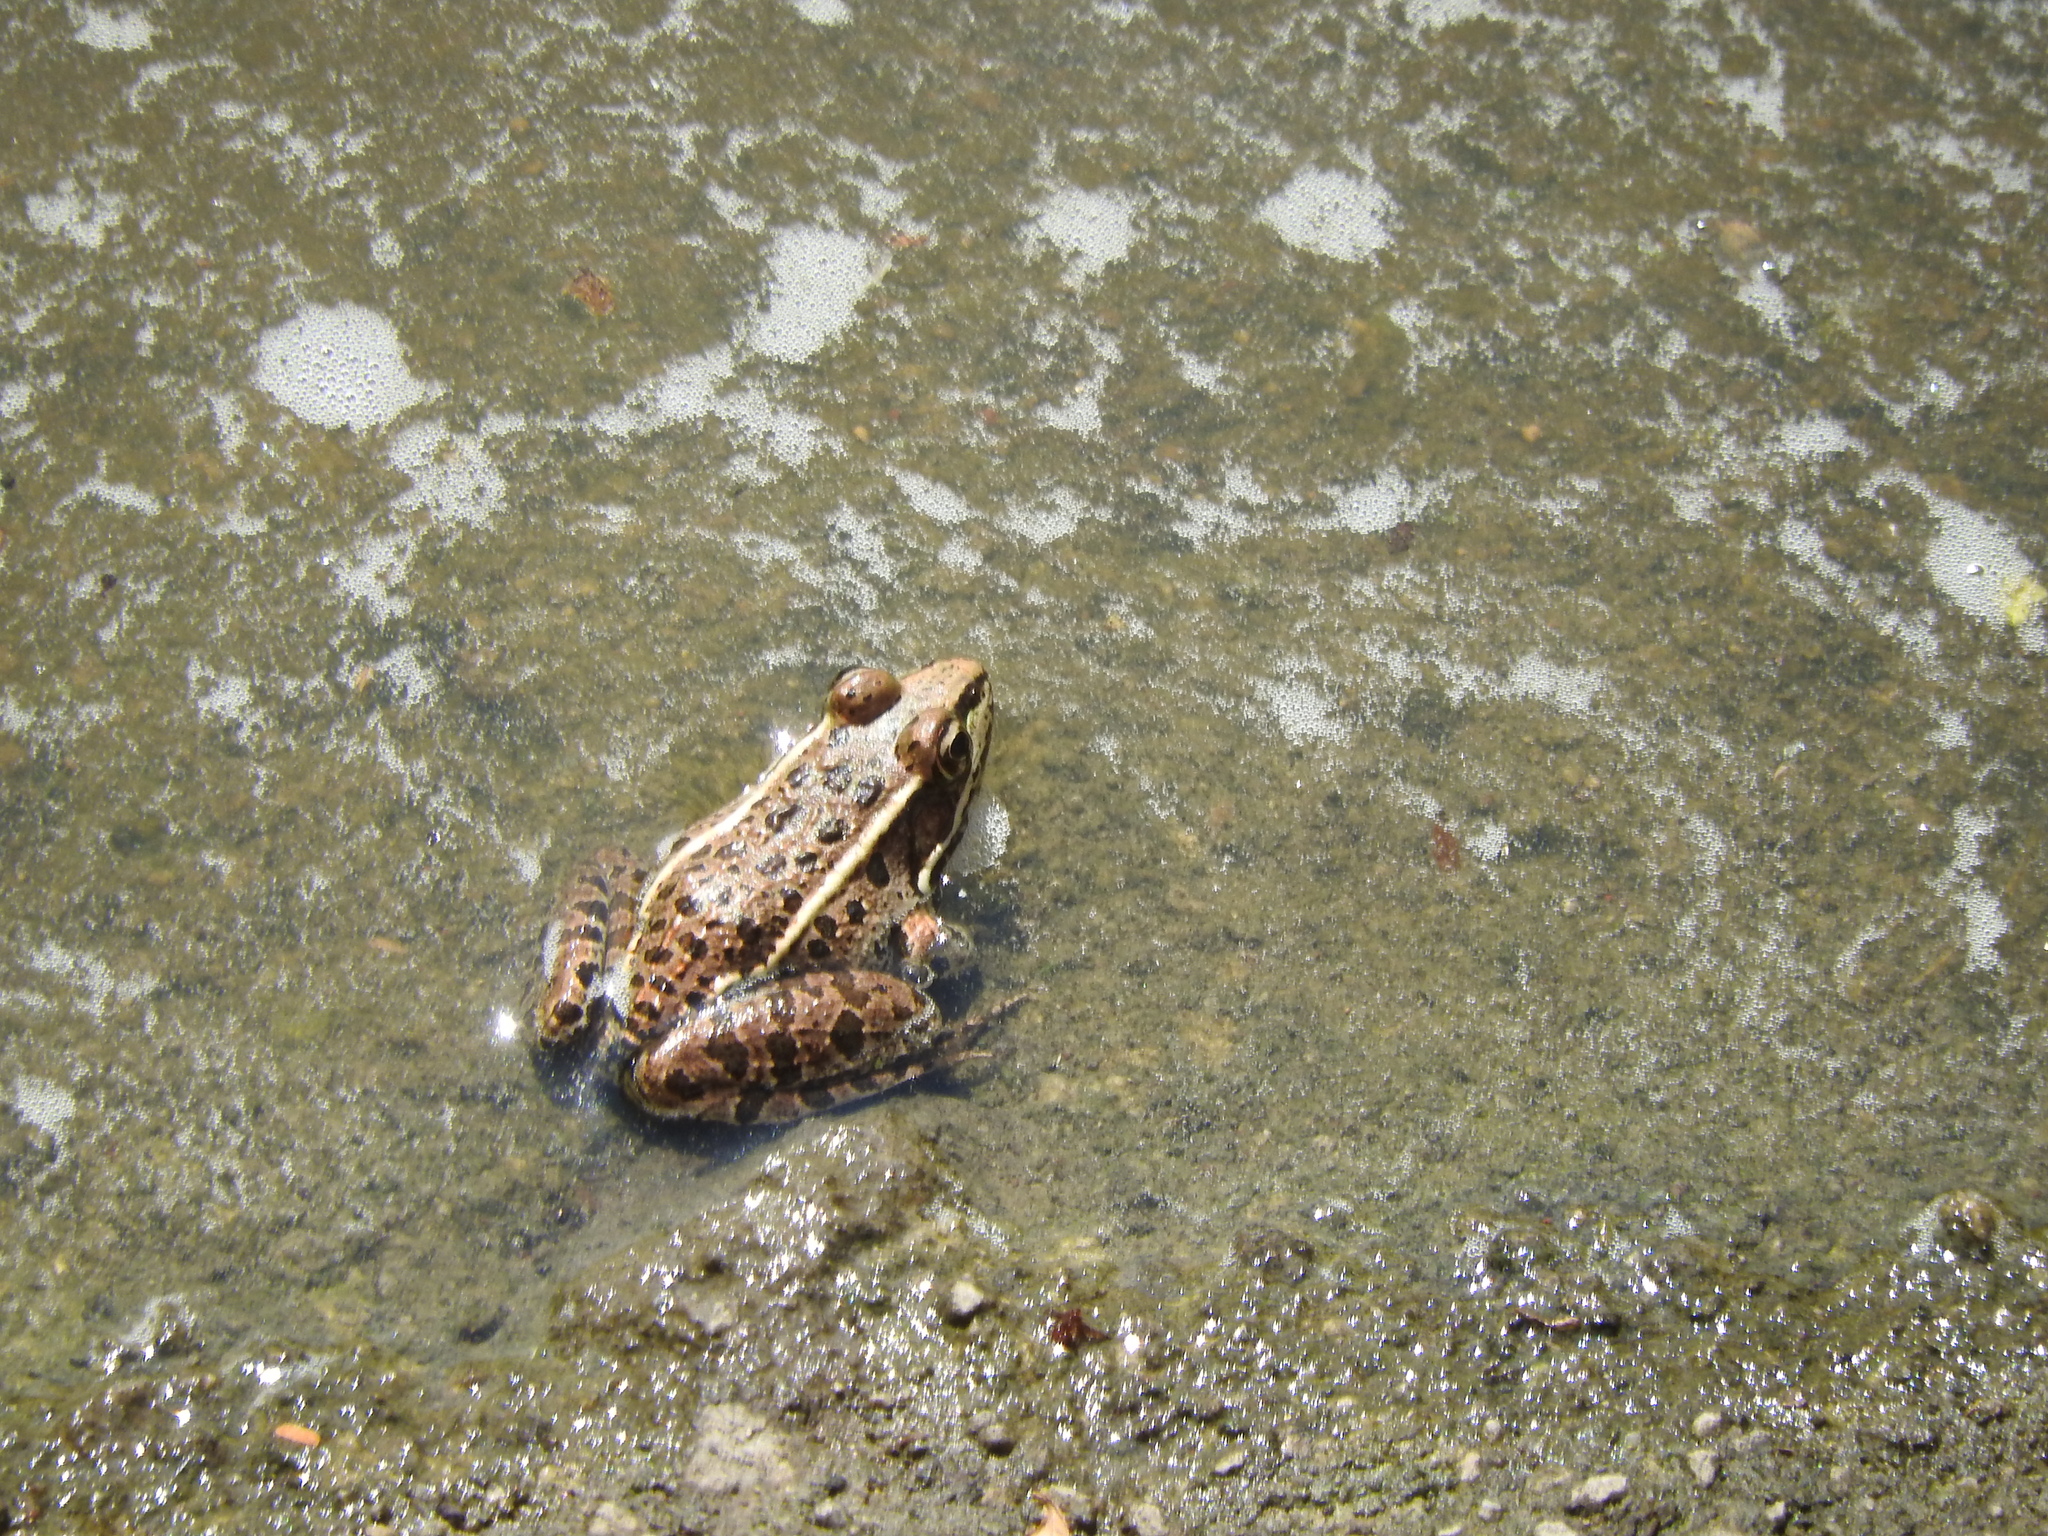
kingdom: Animalia
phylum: Chordata
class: Amphibia
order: Anura
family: Ranidae
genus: Lithobates
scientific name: Lithobates neovolcanicus
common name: Transverse volcanic leopard frog
